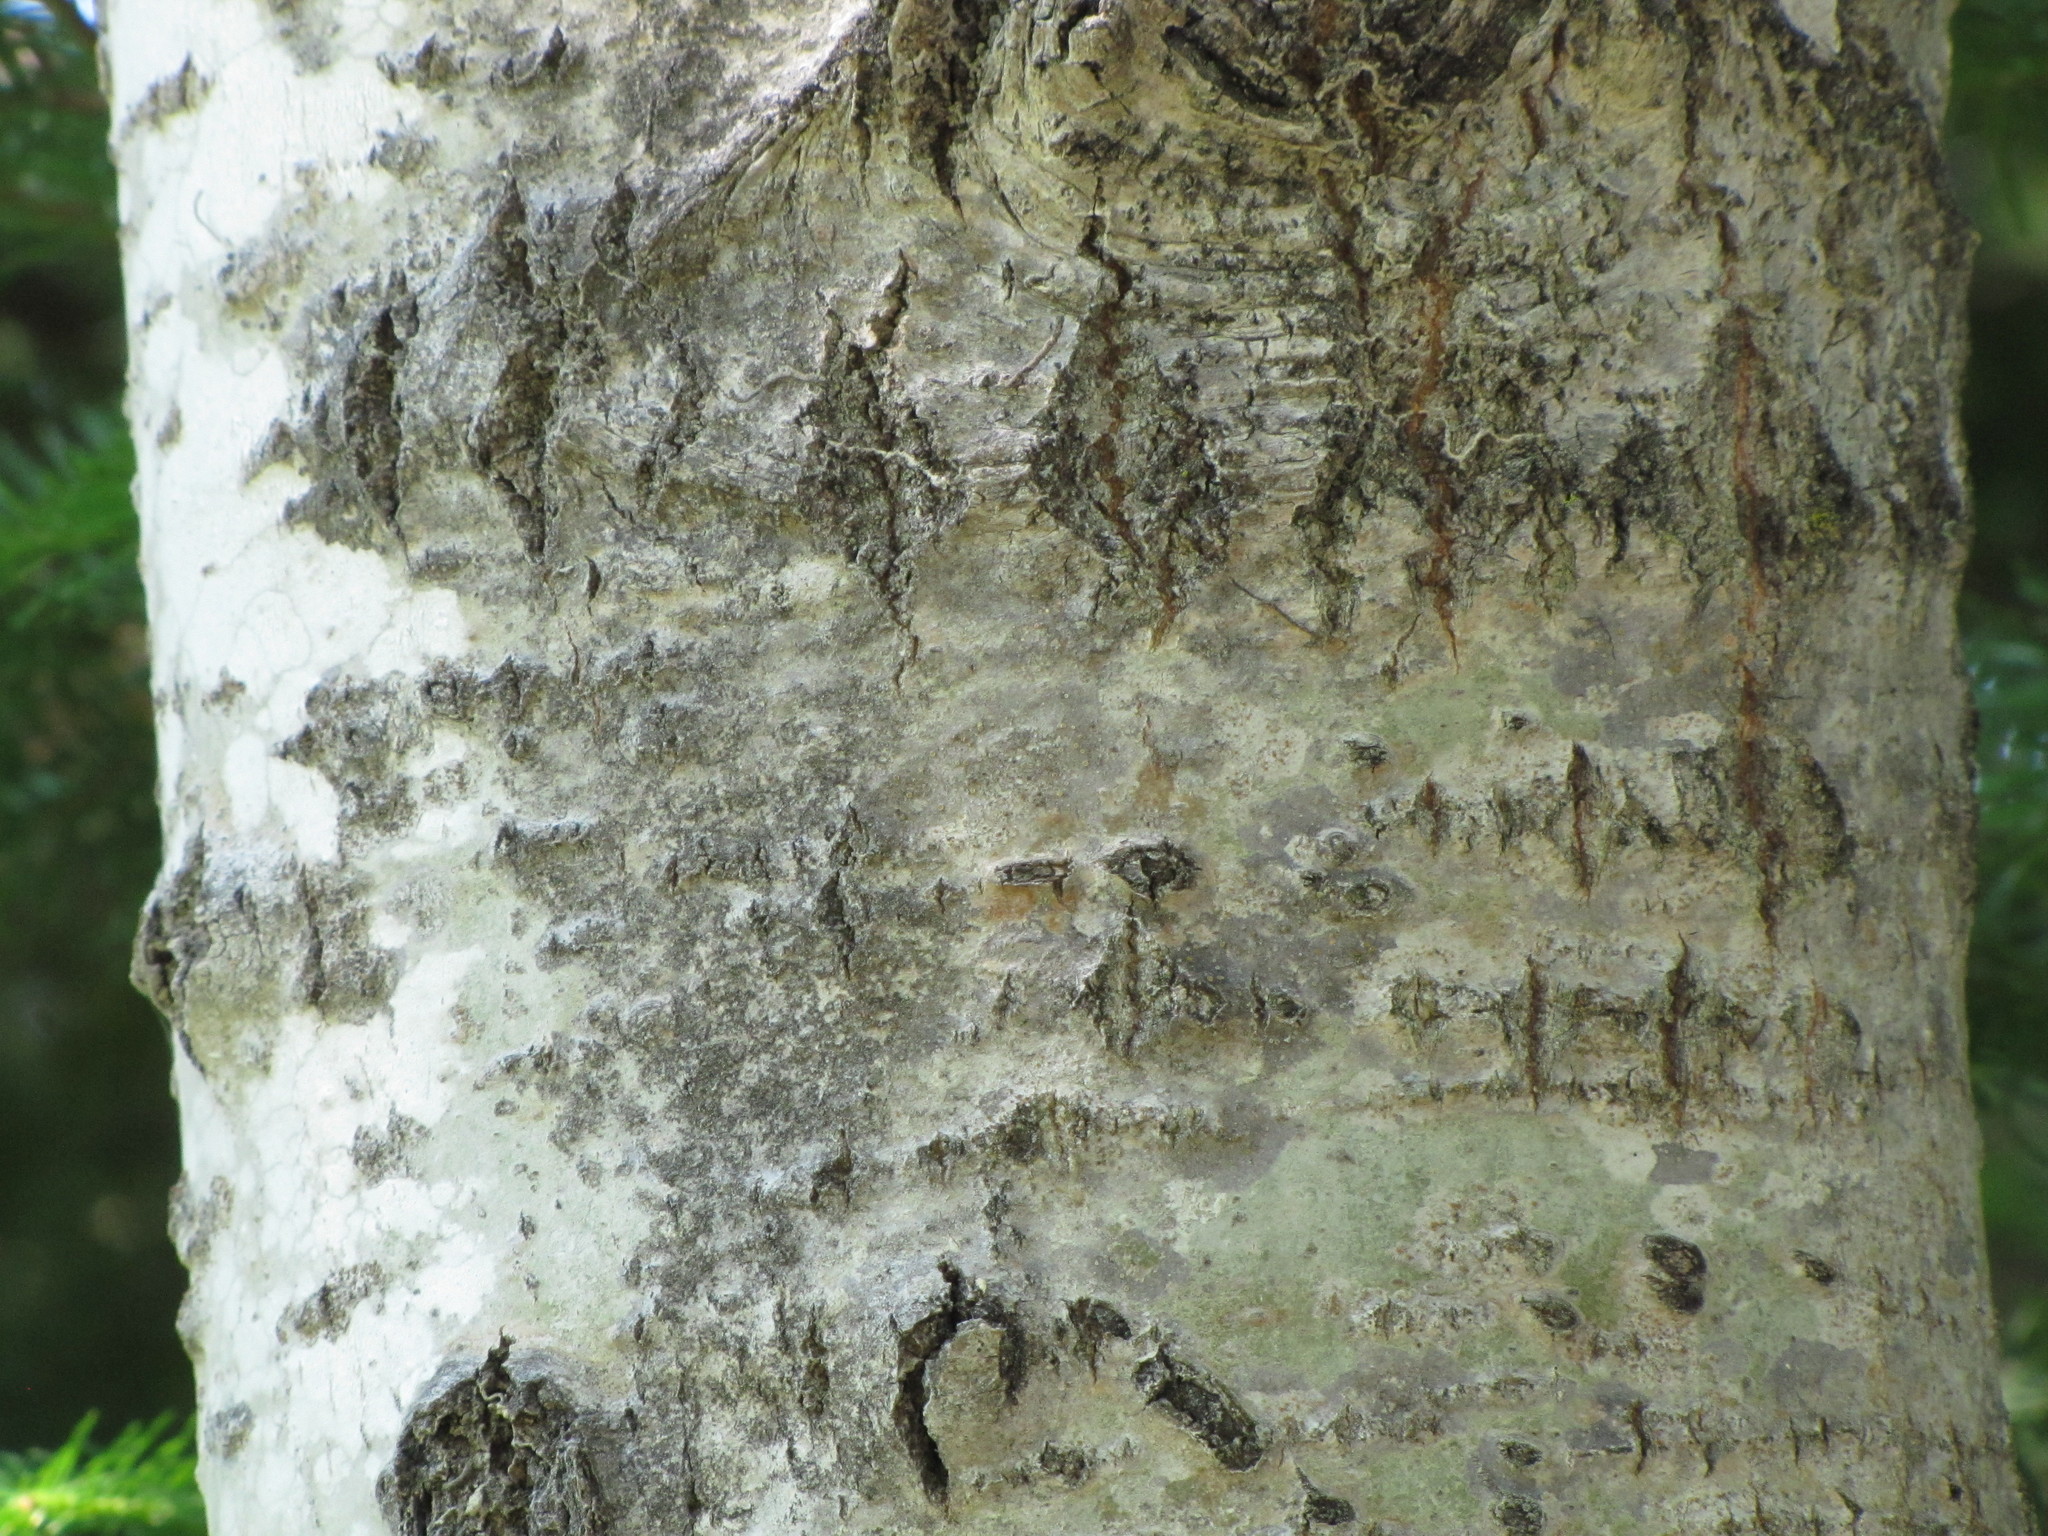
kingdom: Plantae
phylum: Tracheophyta
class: Magnoliopsida
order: Malpighiales
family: Salicaceae
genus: Populus
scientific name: Populus tremuloides
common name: Quaking aspen
